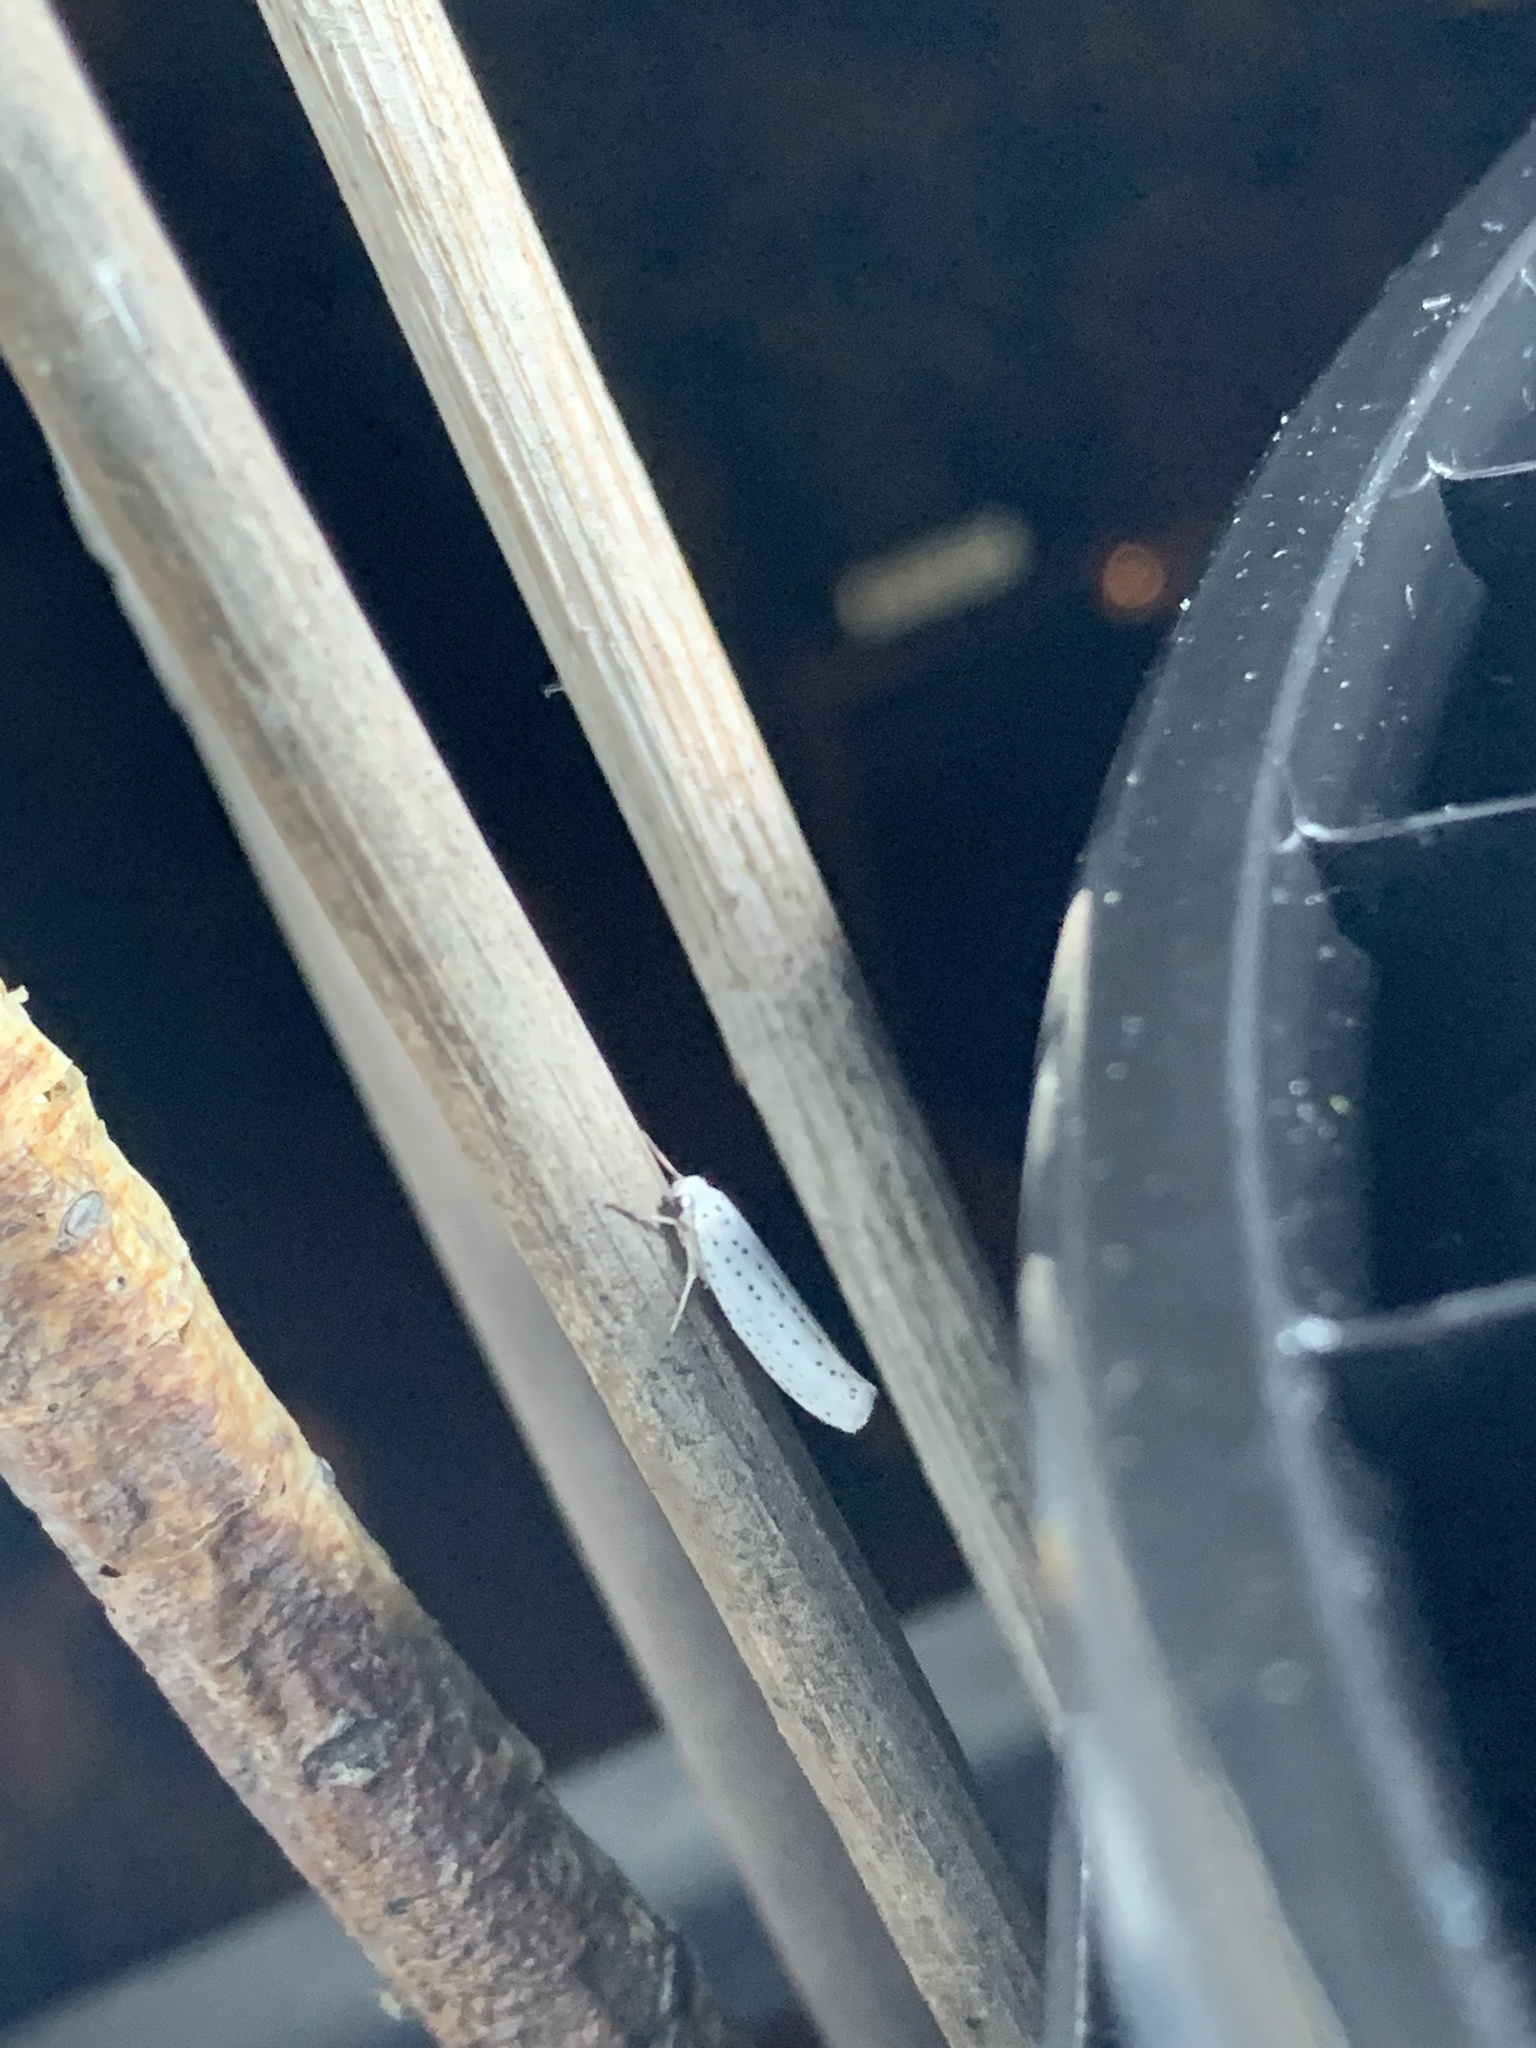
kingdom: Animalia
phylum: Arthropoda
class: Insecta
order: Lepidoptera
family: Yponomeutidae
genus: Yponomeuta
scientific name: Yponomeuta evonymella
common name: Bird-cherry ermine
